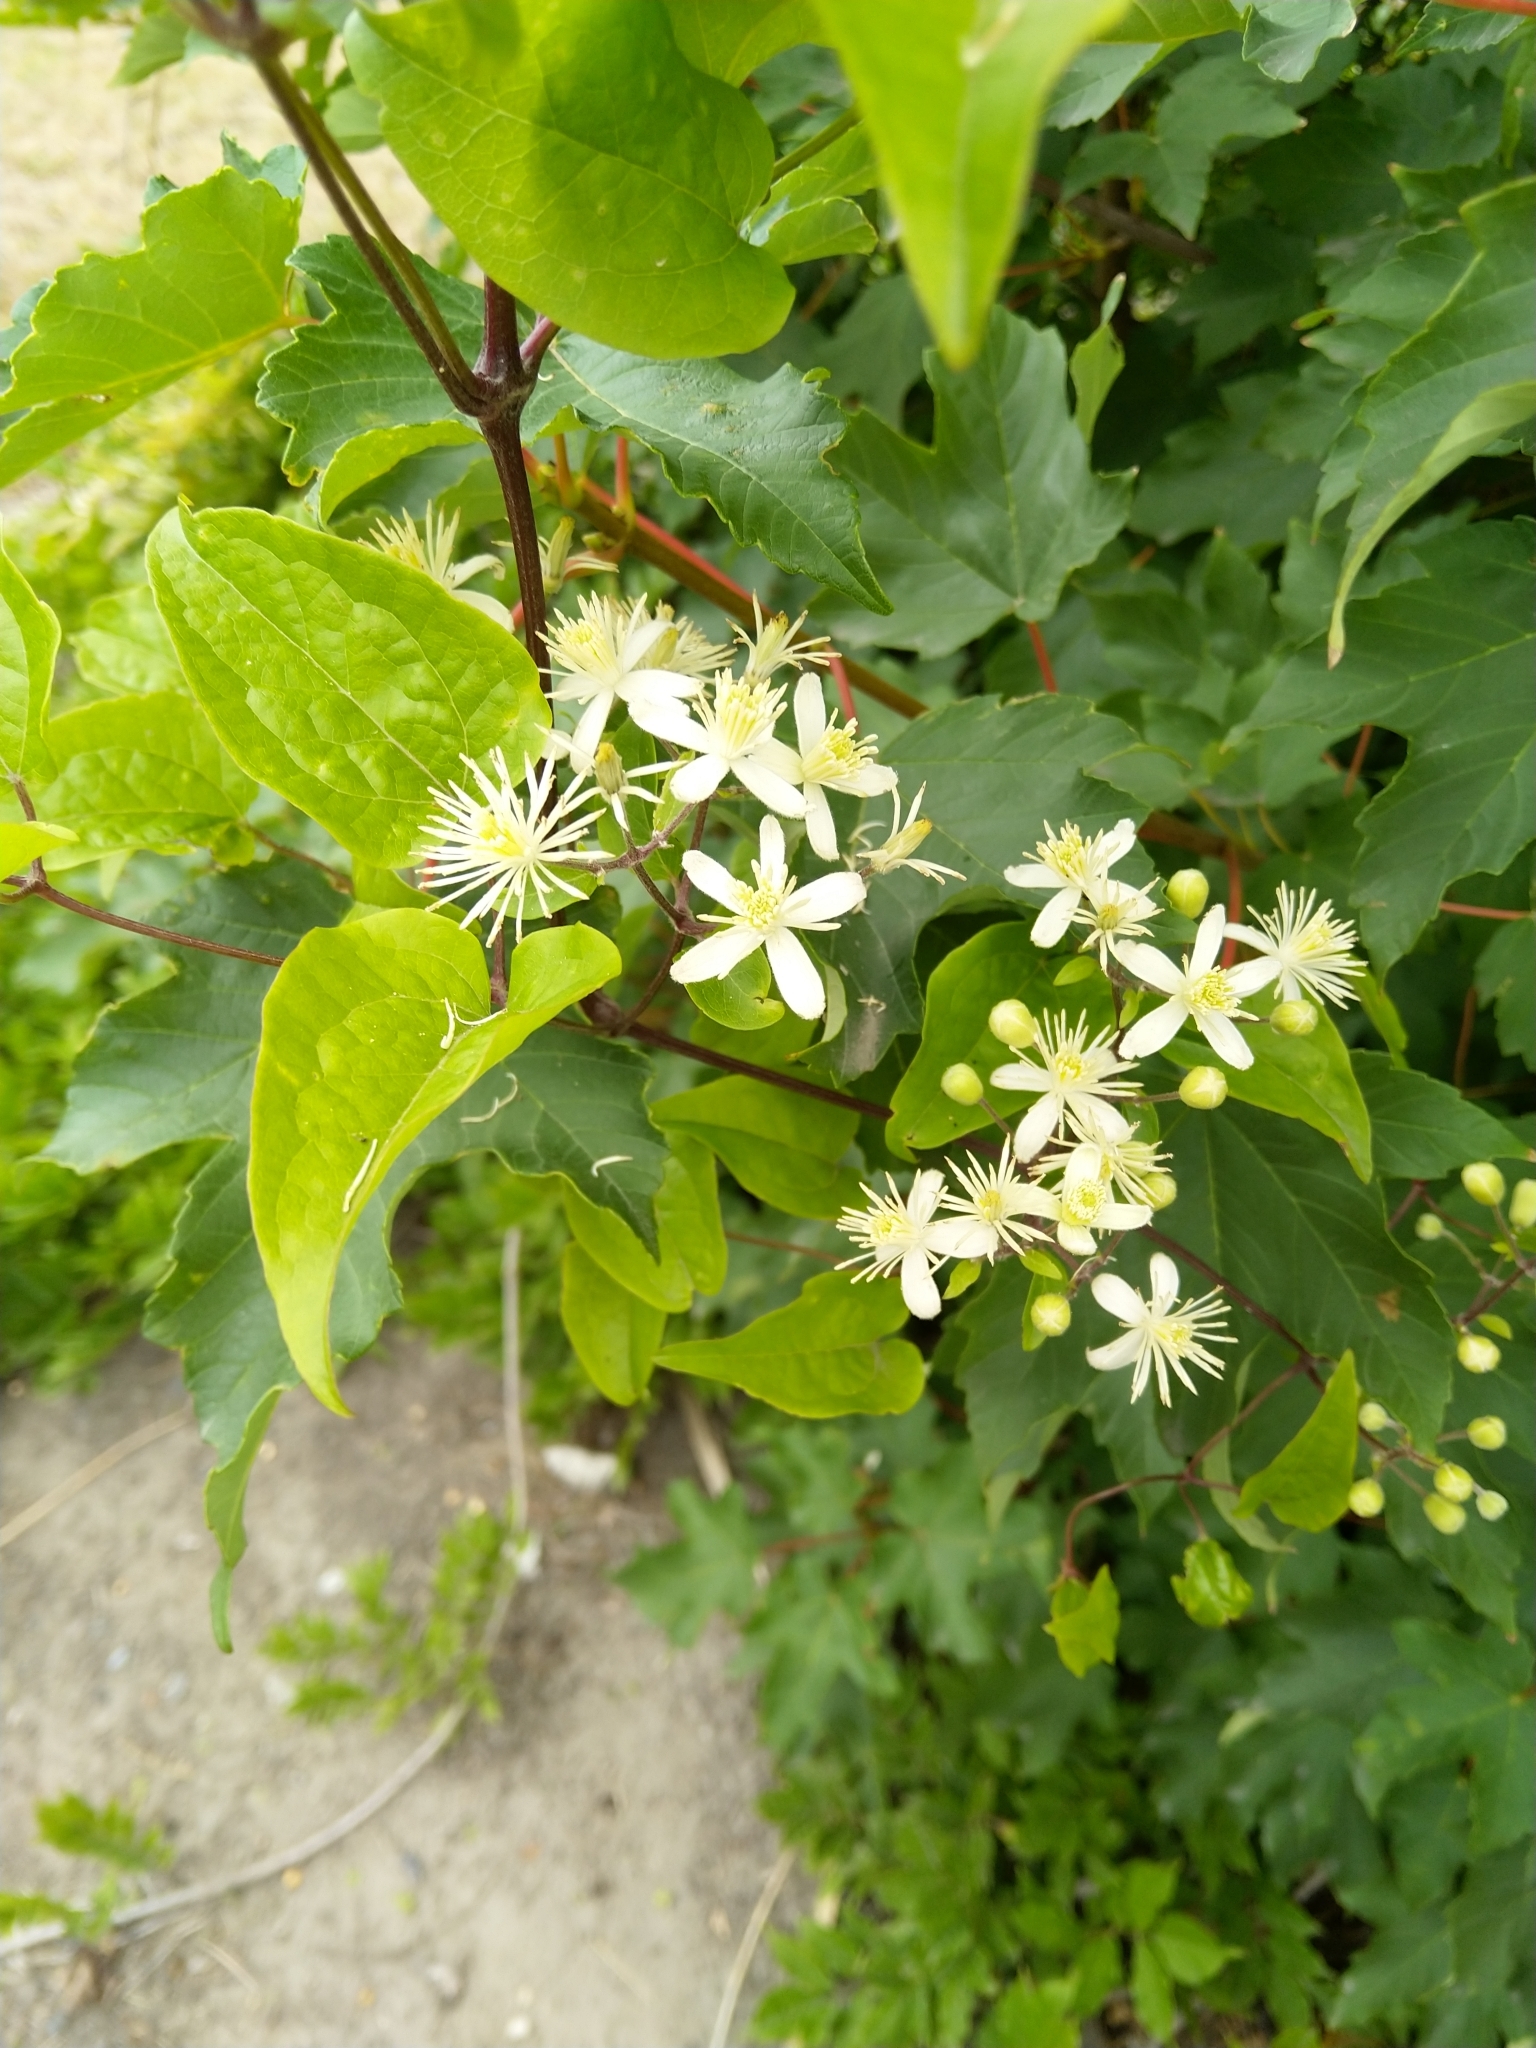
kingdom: Plantae
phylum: Tracheophyta
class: Magnoliopsida
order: Ranunculales
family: Ranunculaceae
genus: Clematis
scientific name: Clematis vitalba
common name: Evergreen clematis
